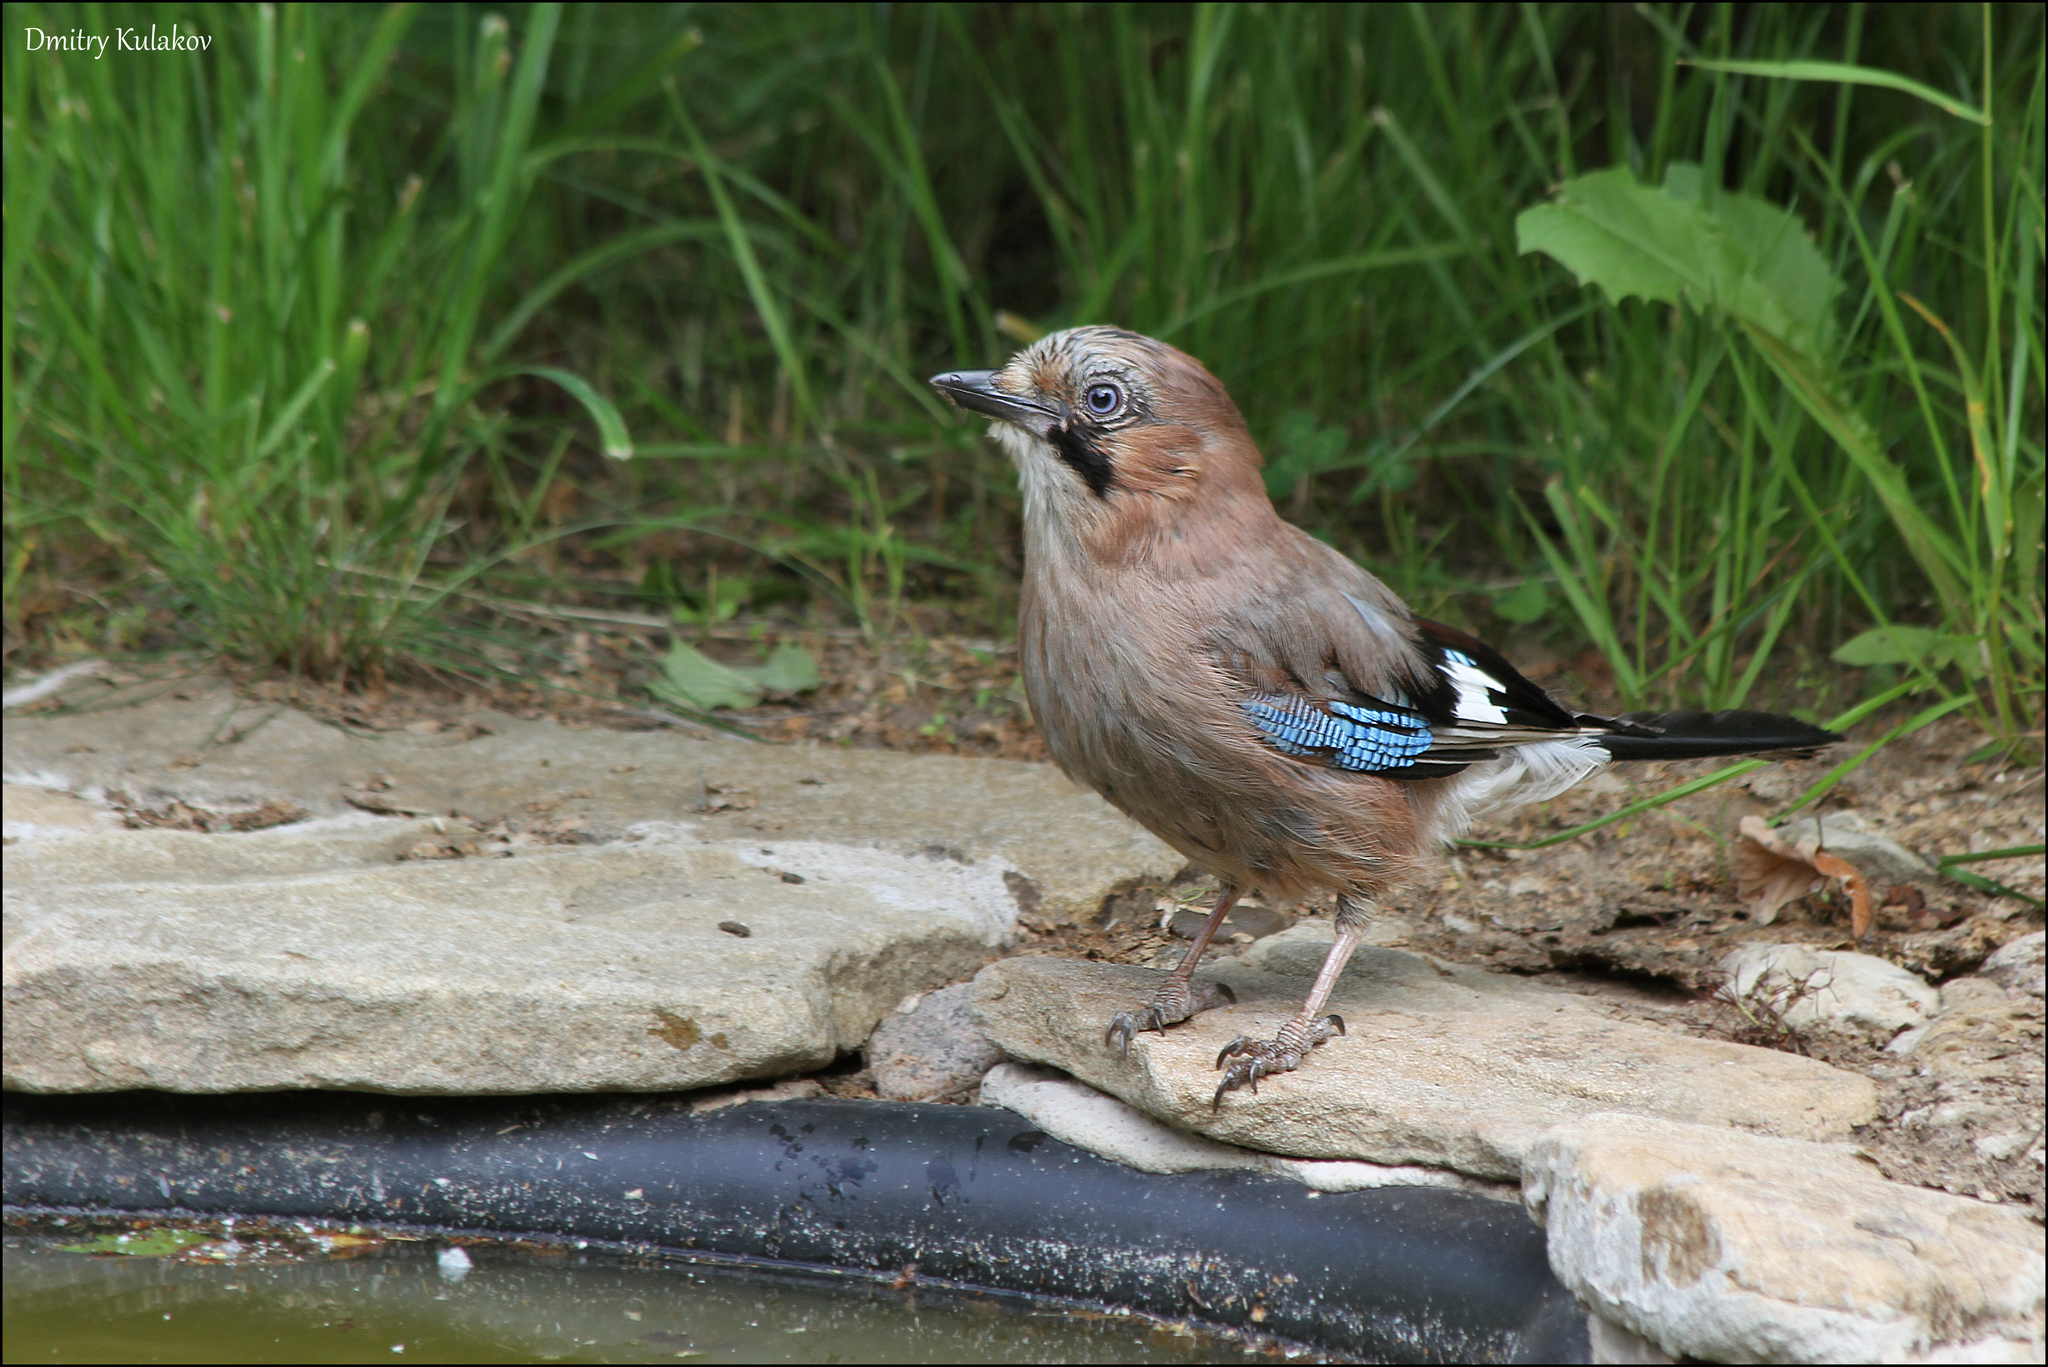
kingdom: Animalia
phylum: Chordata
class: Aves
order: Passeriformes
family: Corvidae
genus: Garrulus
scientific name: Garrulus glandarius
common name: Eurasian jay
